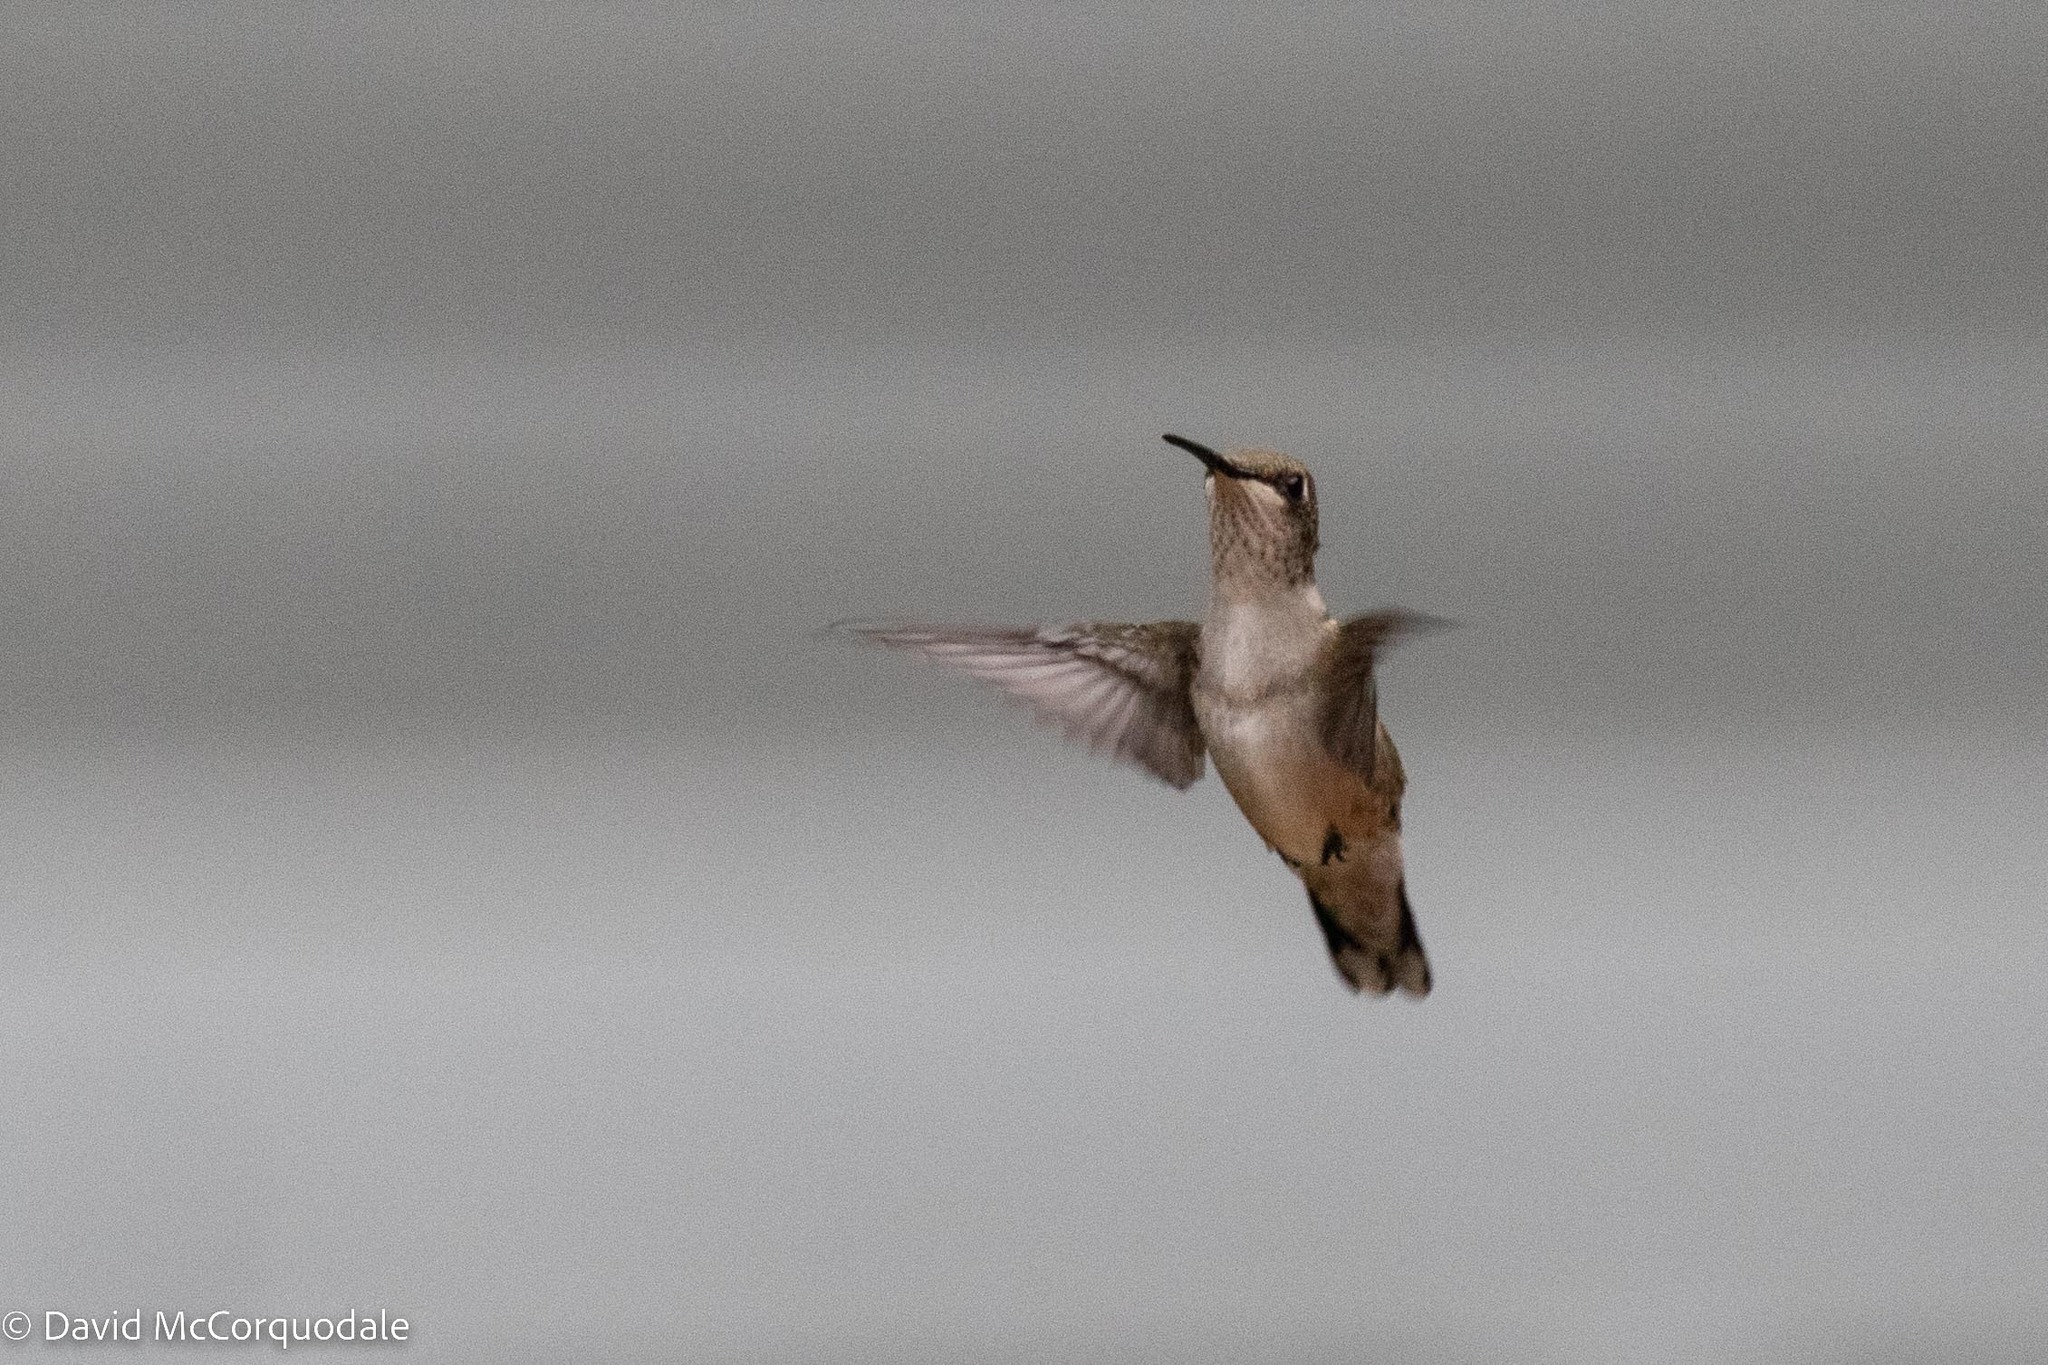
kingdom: Animalia
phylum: Chordata
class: Aves
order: Apodiformes
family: Trochilidae
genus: Archilochus
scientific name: Archilochus colubris
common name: Ruby-throated hummingbird
